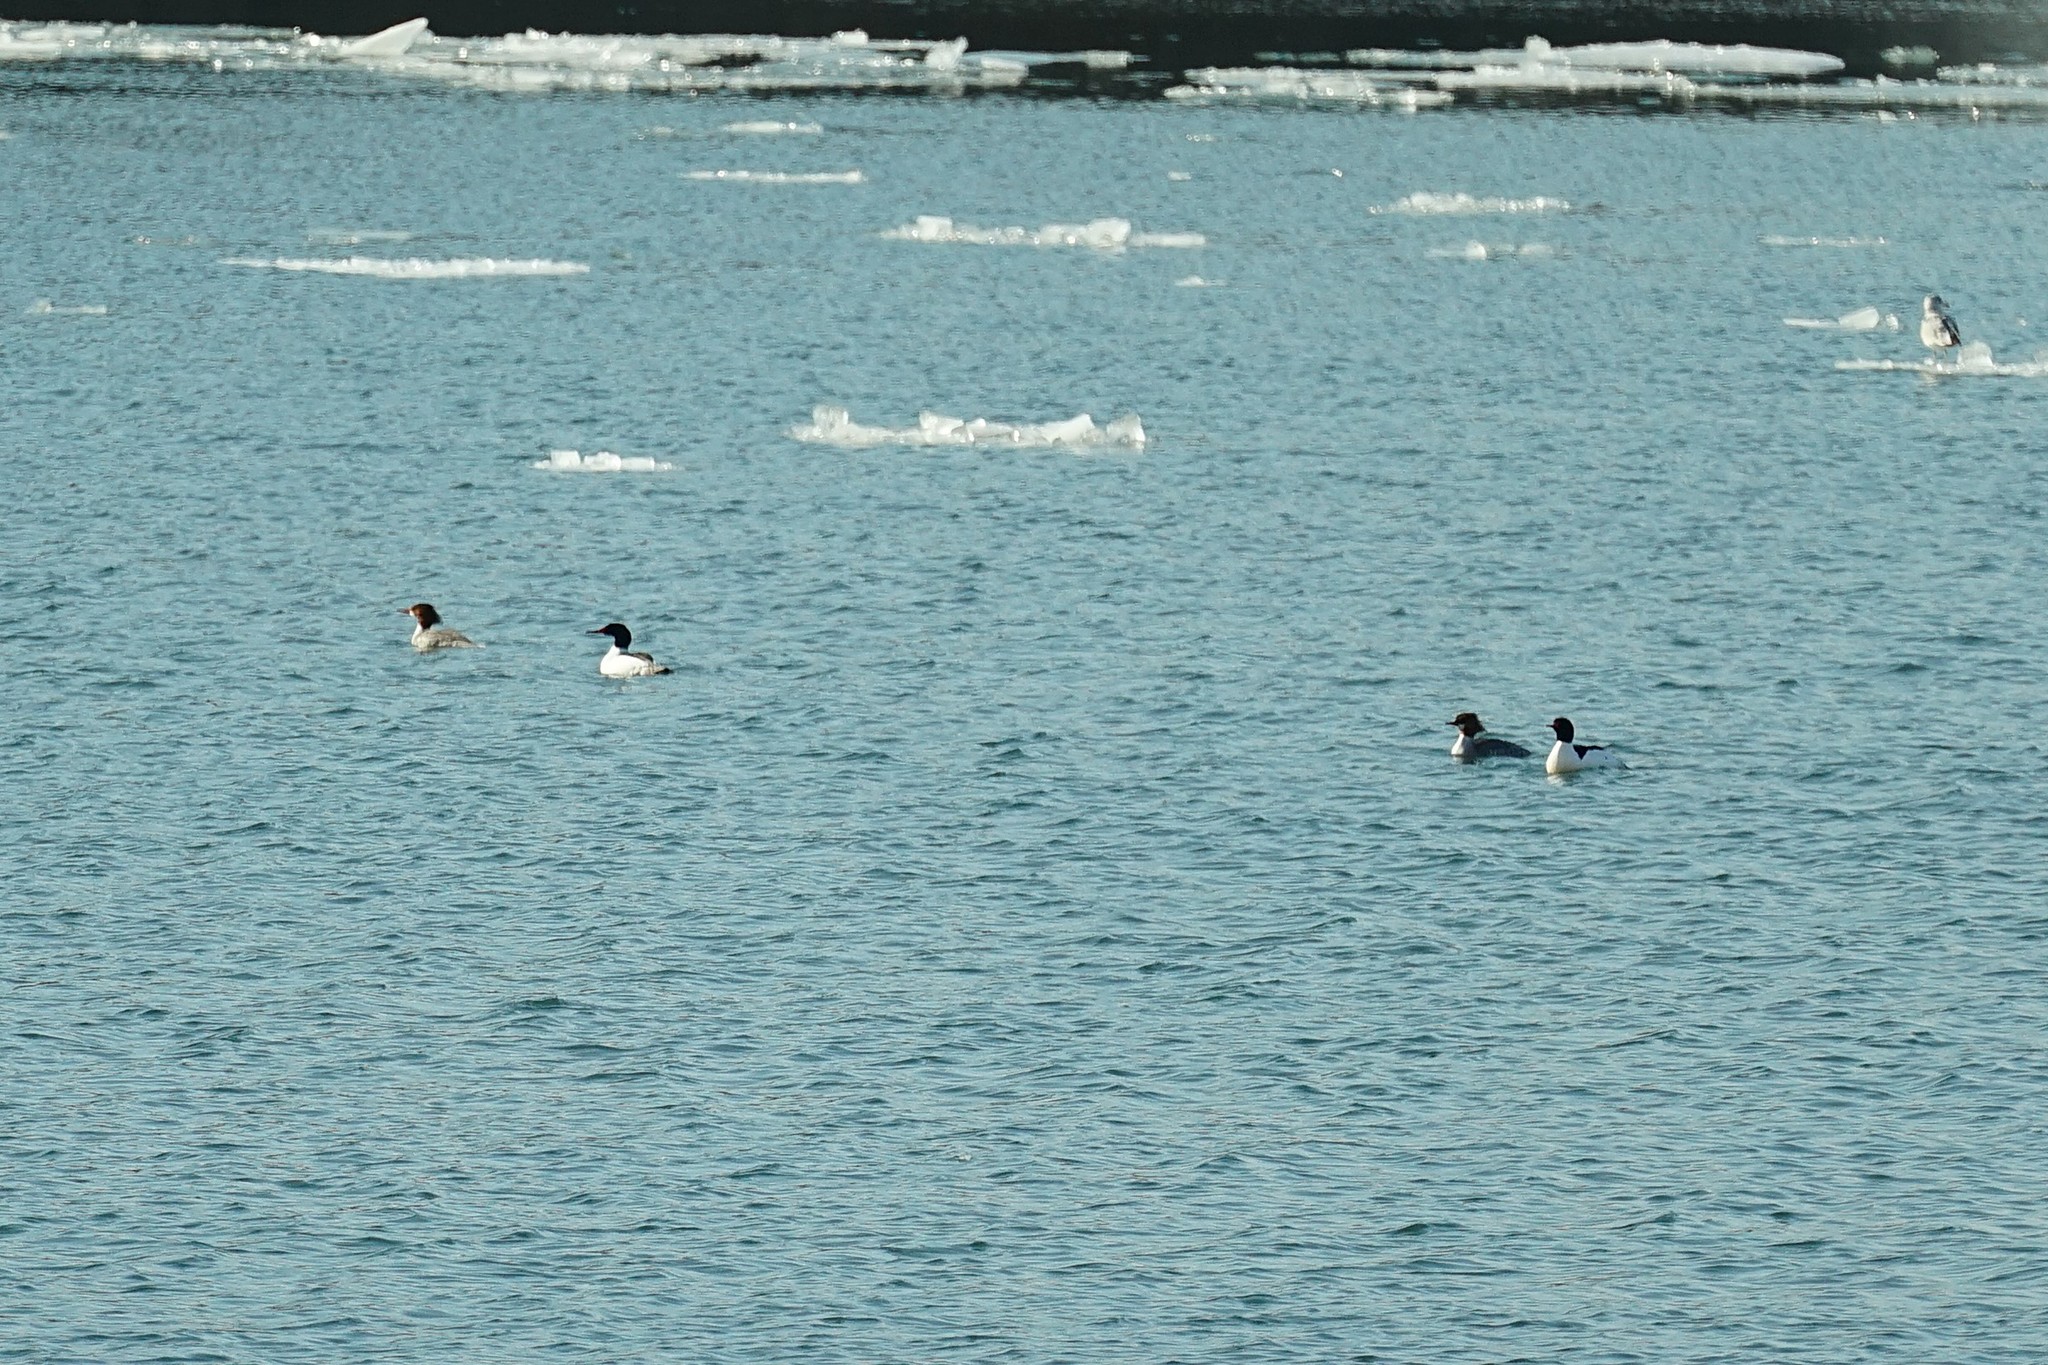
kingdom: Animalia
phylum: Chordata
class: Aves
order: Anseriformes
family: Anatidae
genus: Mergus
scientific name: Mergus merganser
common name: Common merganser
